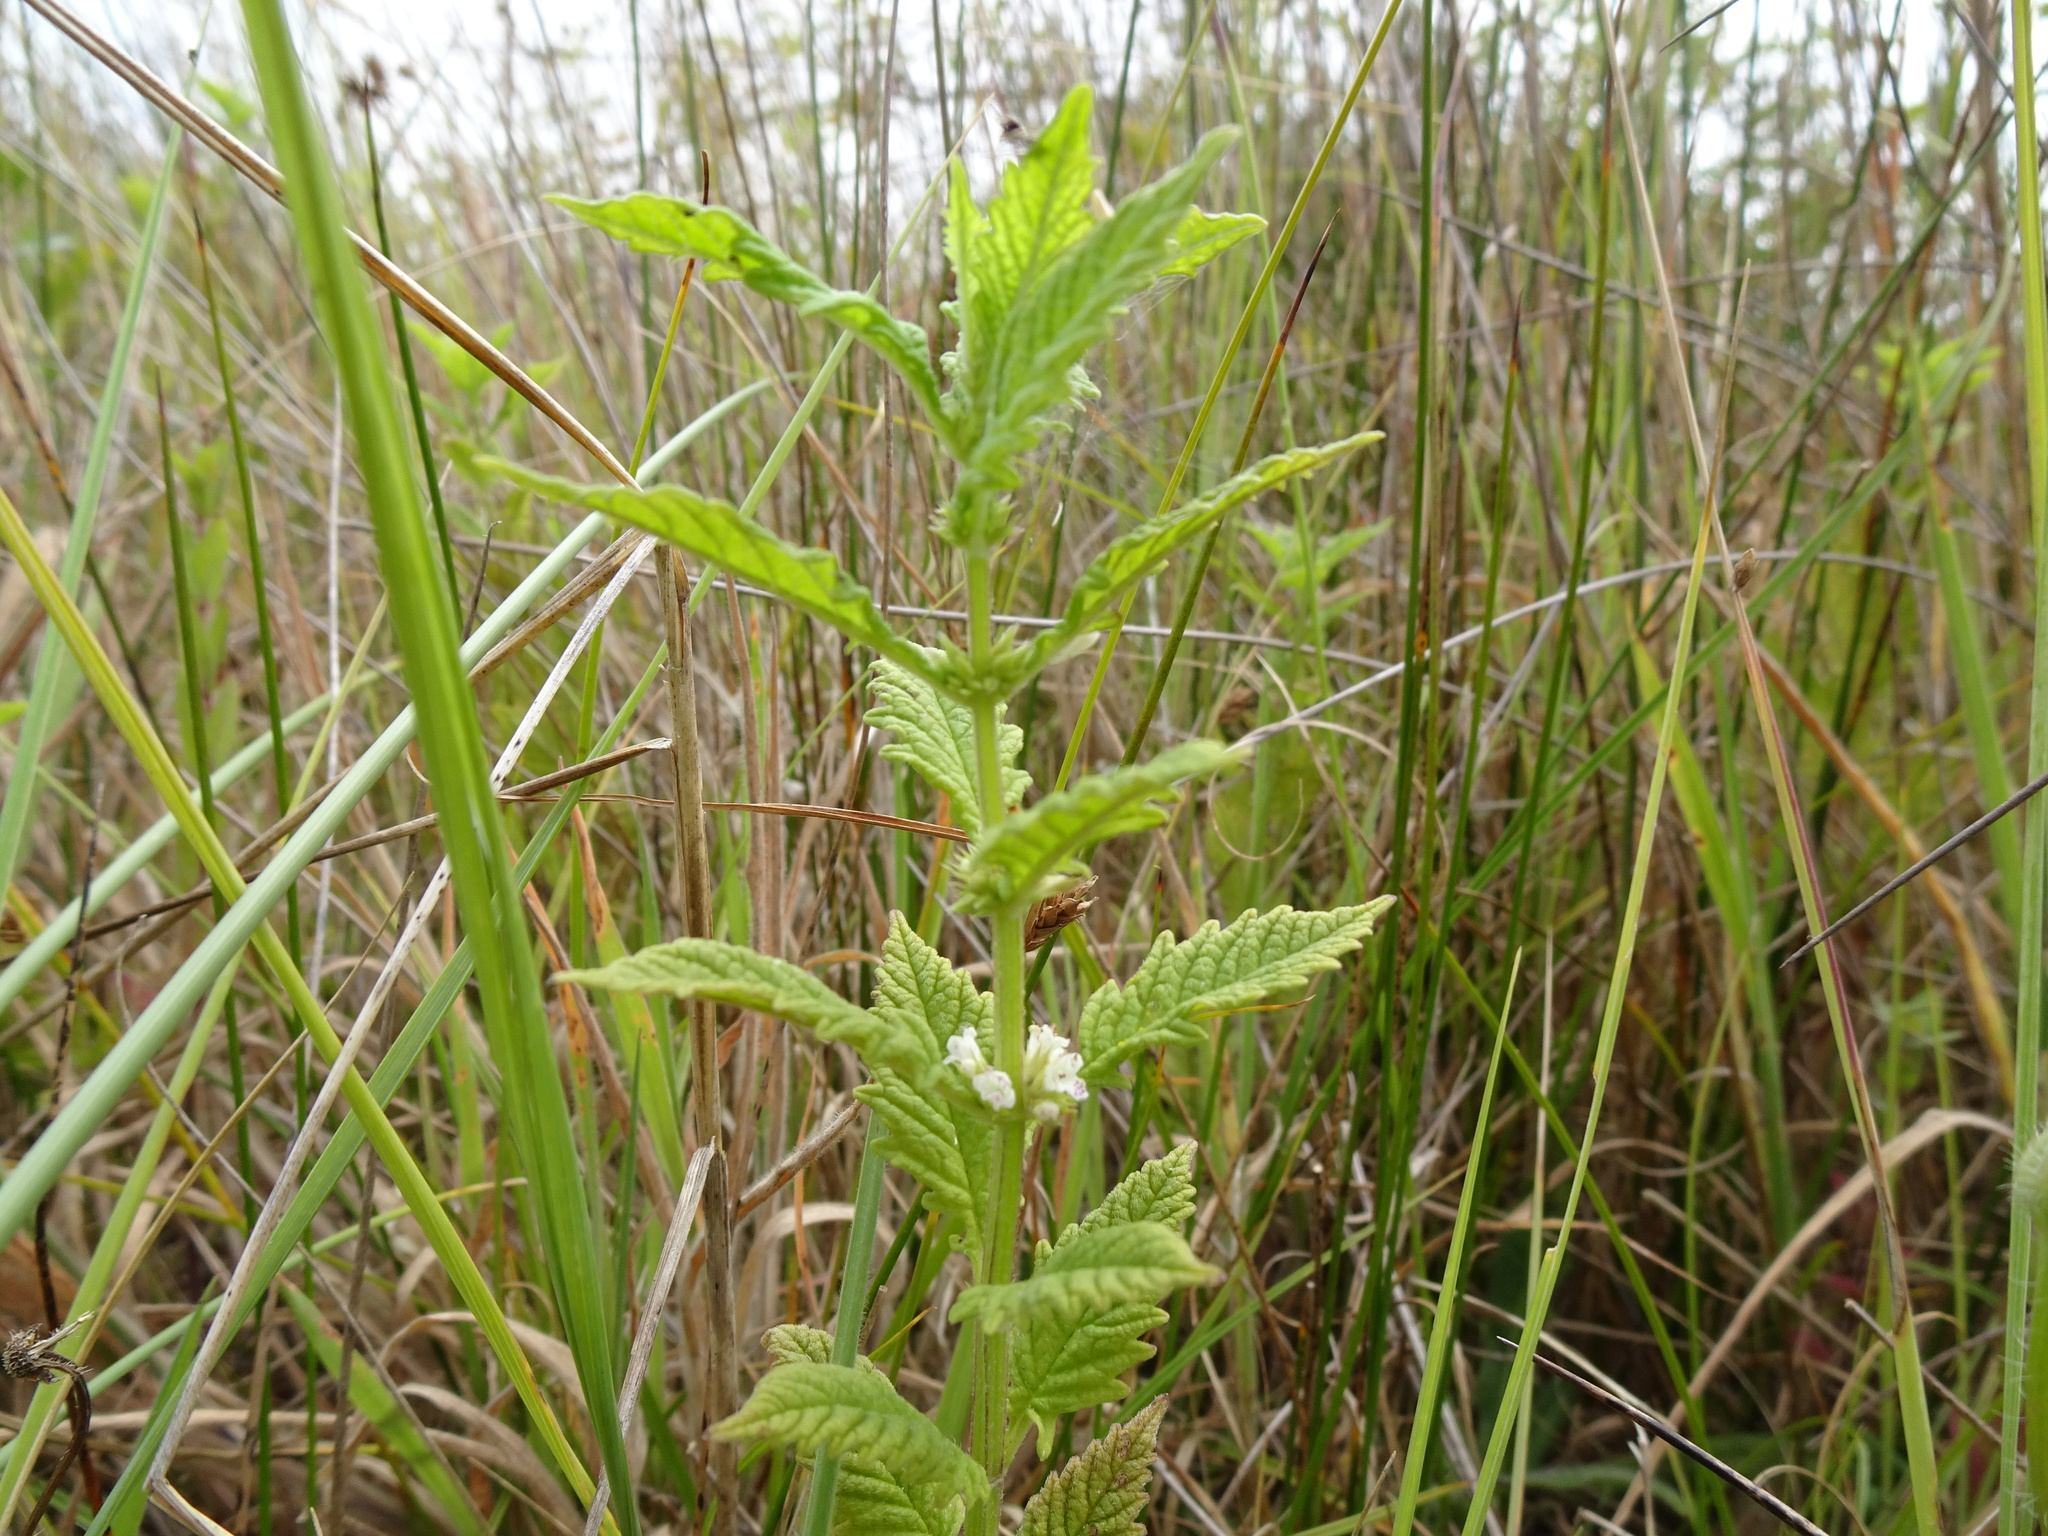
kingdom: Plantae
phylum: Tracheophyta
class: Magnoliopsida
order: Lamiales
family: Lamiaceae
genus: Lycopus
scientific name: Lycopus europaeus
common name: European bugleweed
